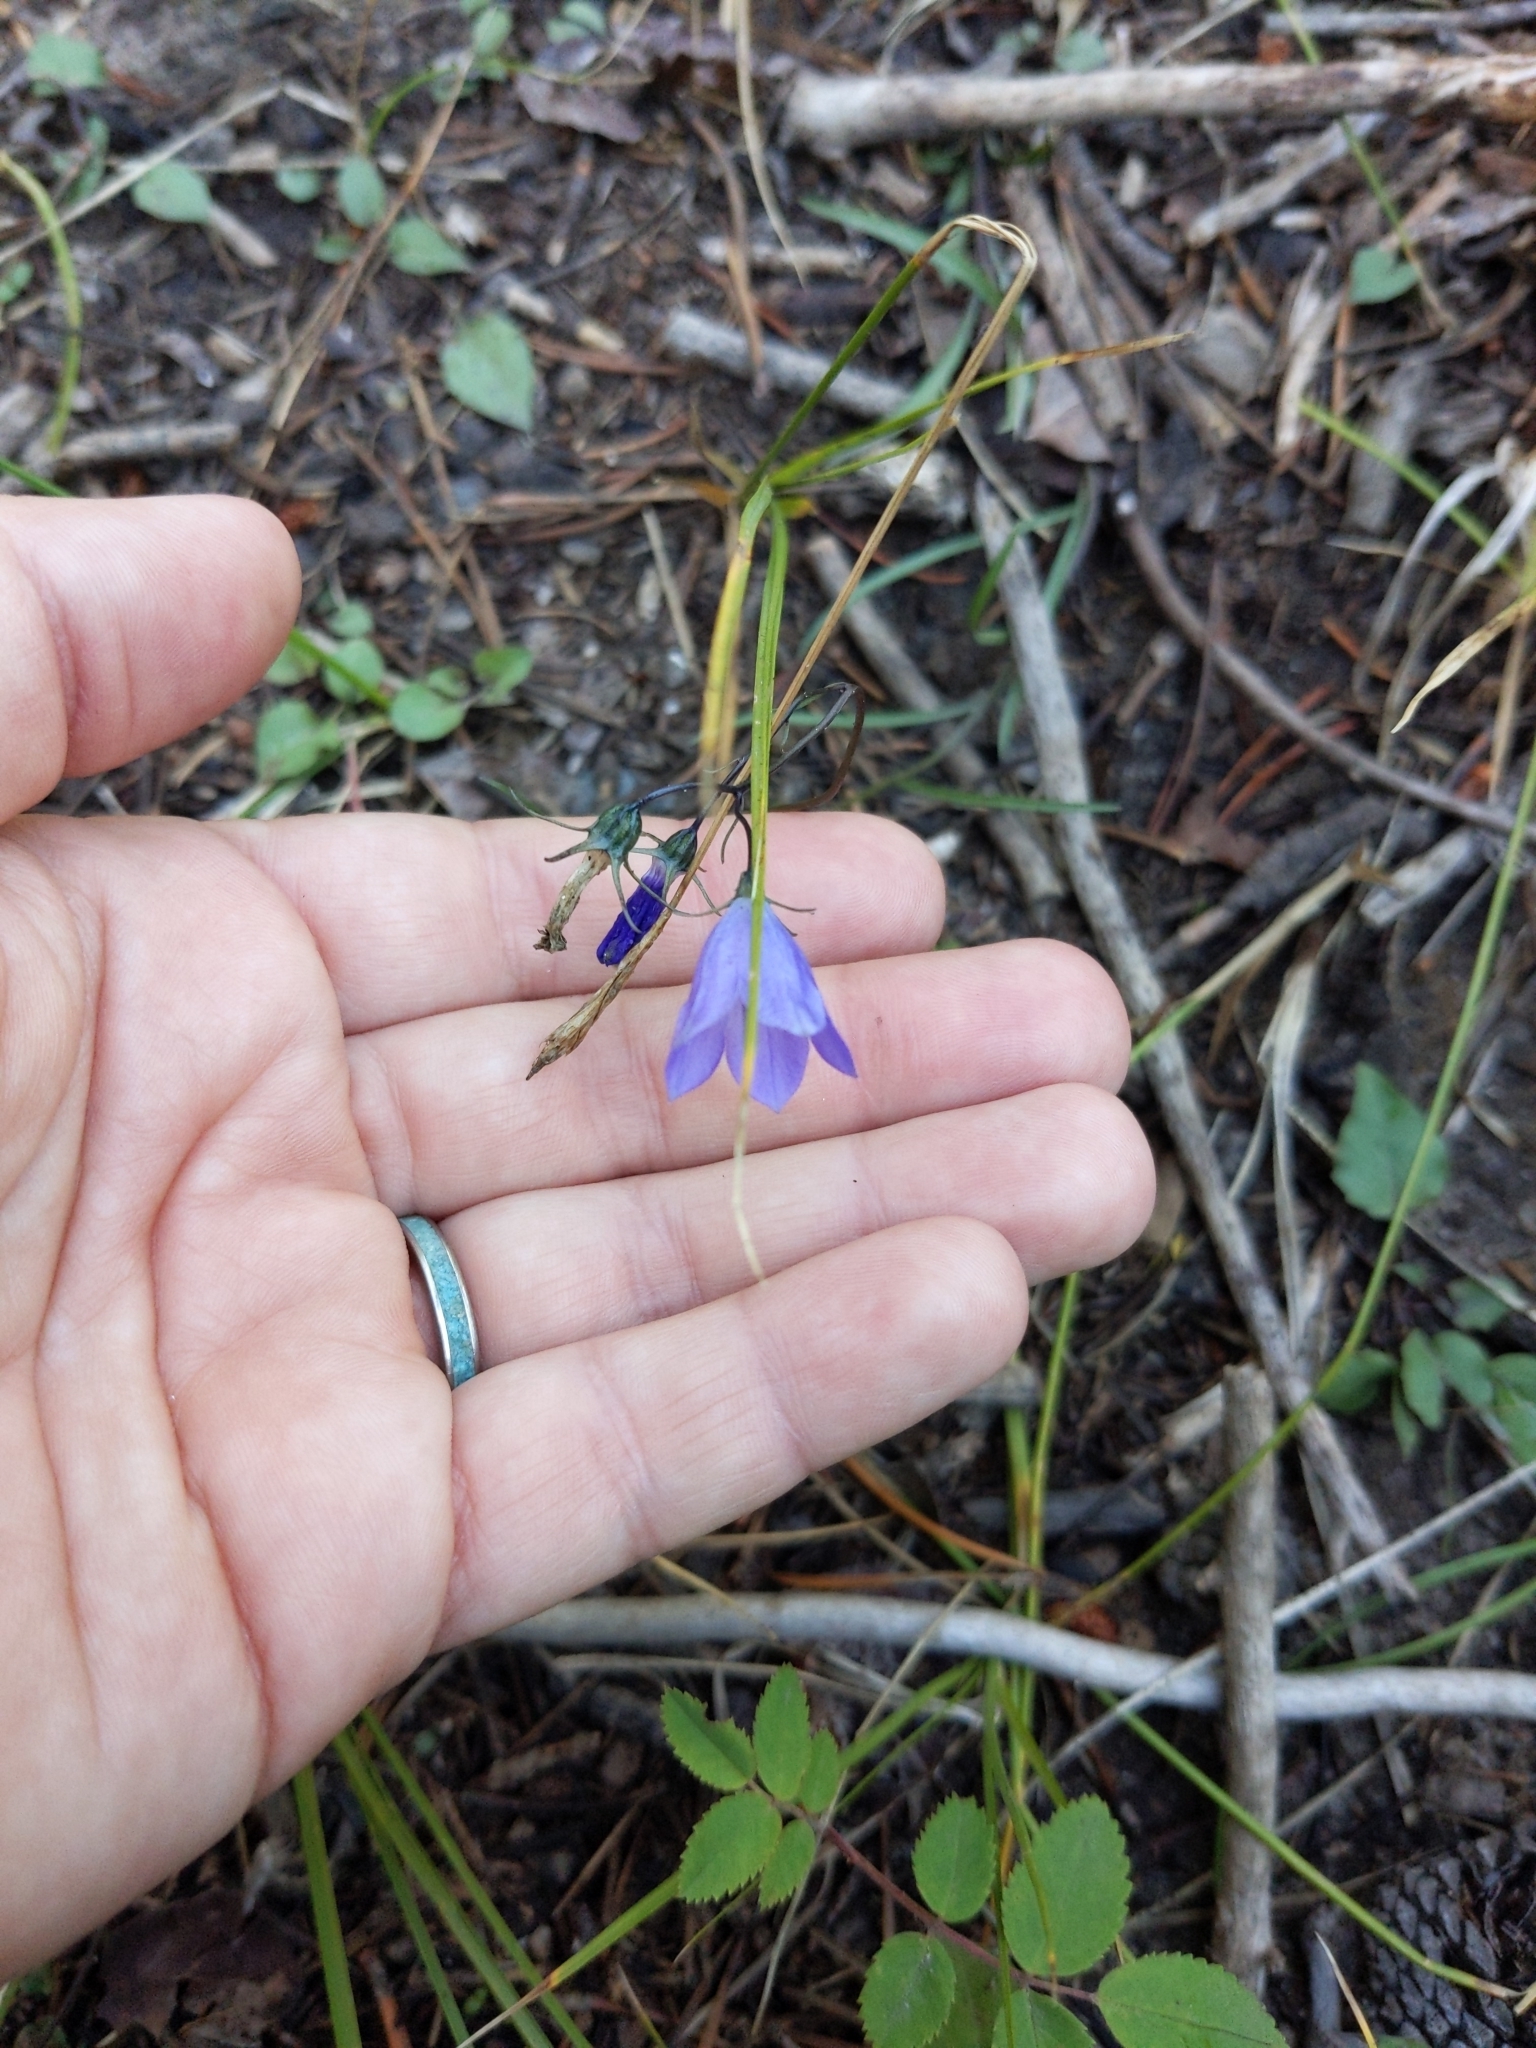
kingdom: Plantae
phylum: Tracheophyta
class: Magnoliopsida
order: Asterales
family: Campanulaceae
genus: Campanula
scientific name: Campanula petiolata
